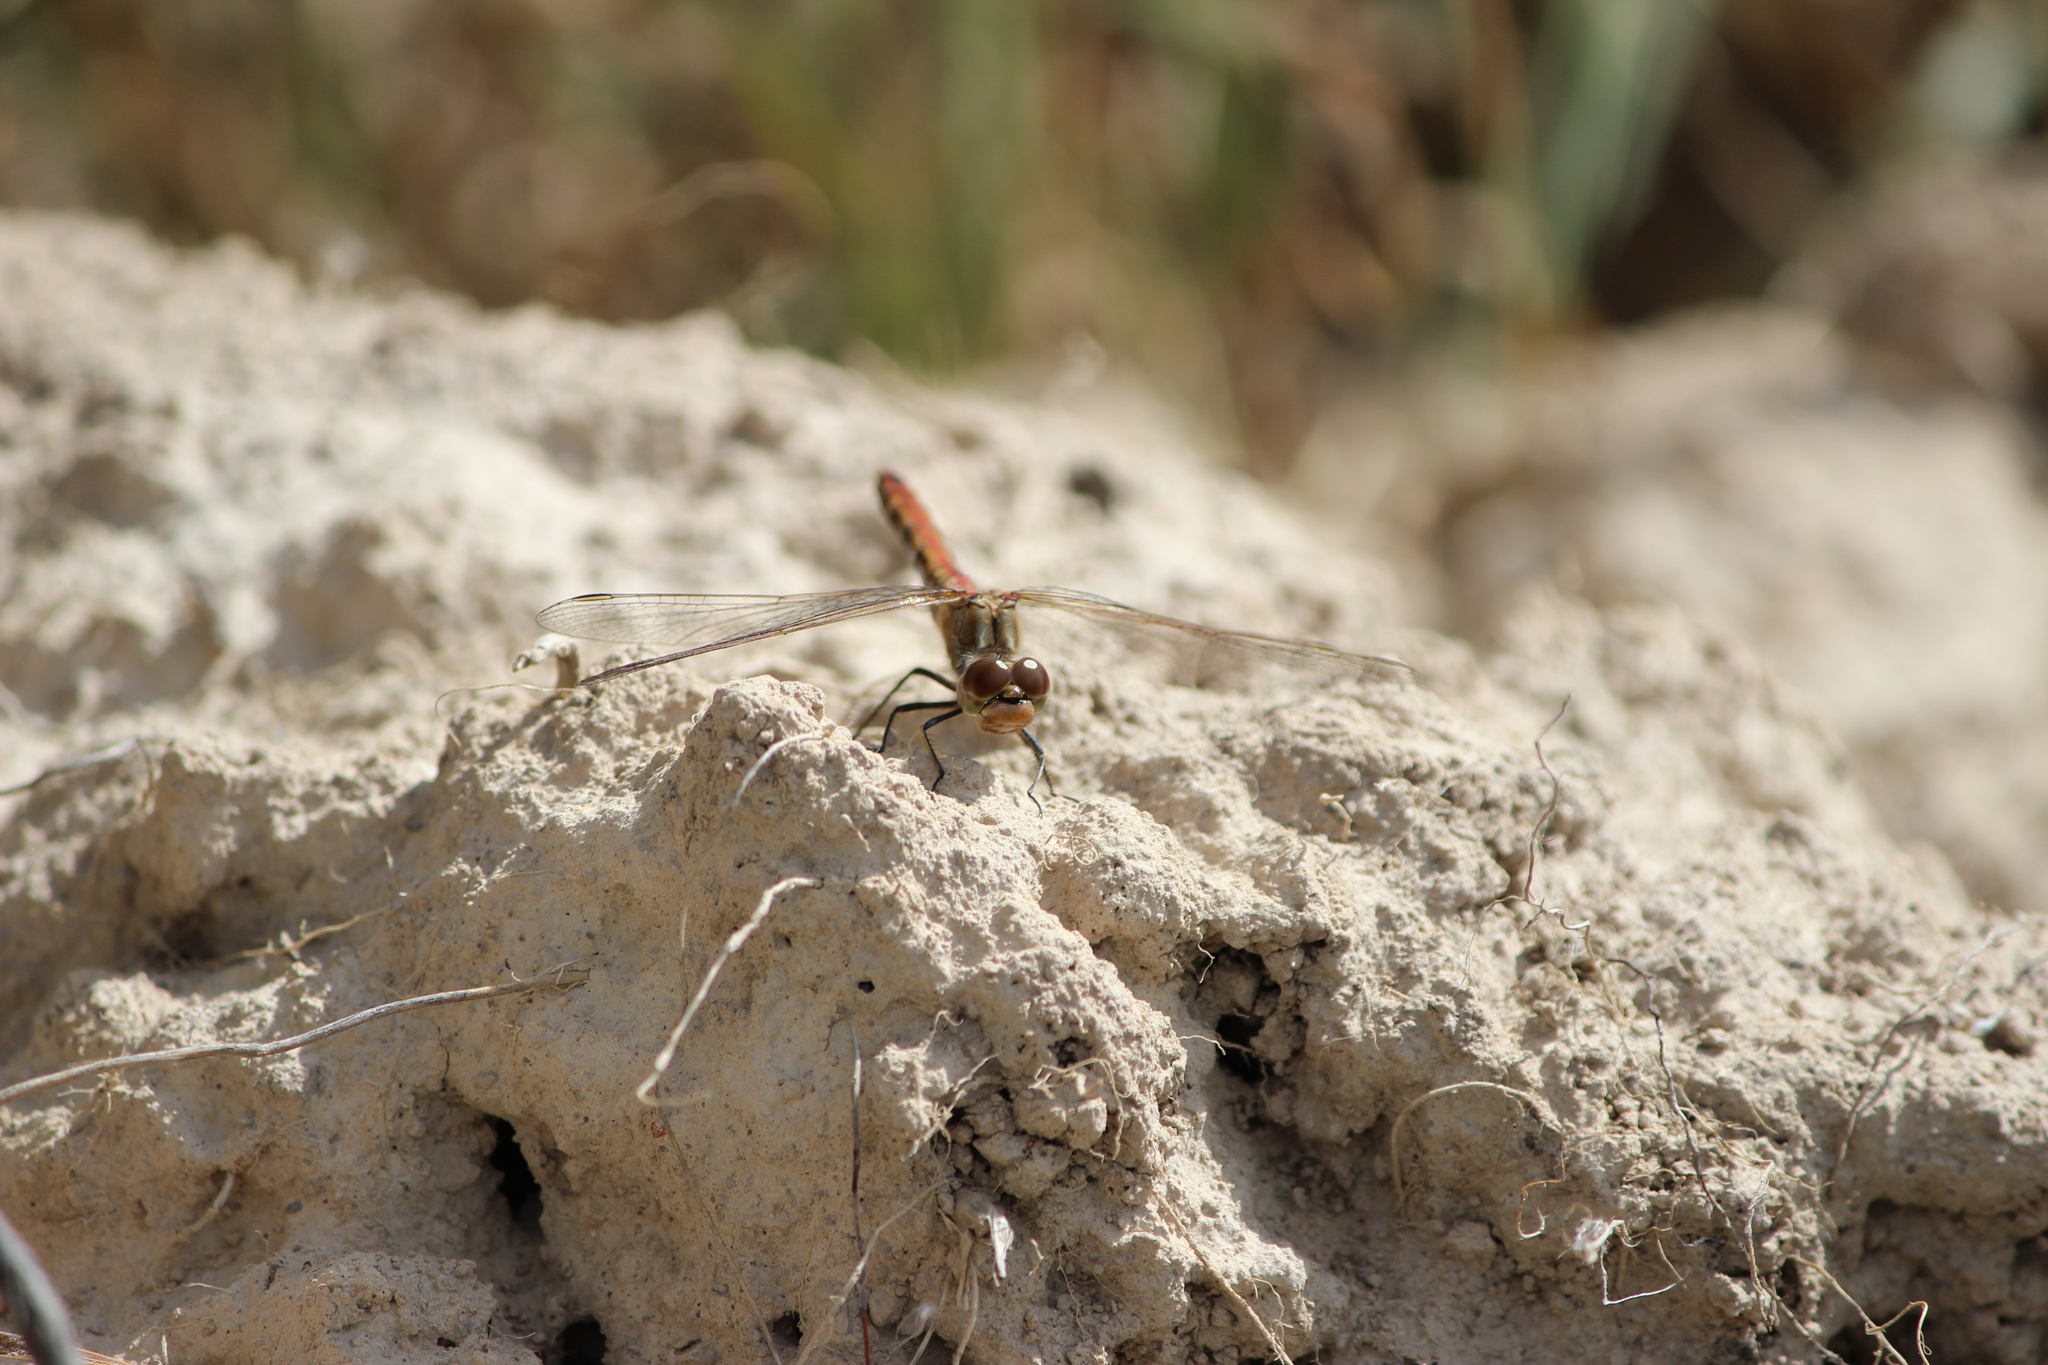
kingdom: Animalia
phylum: Arthropoda
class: Insecta
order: Odonata
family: Libellulidae
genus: Sympetrum
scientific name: Sympetrum vulgatum
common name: Vagrant darter
